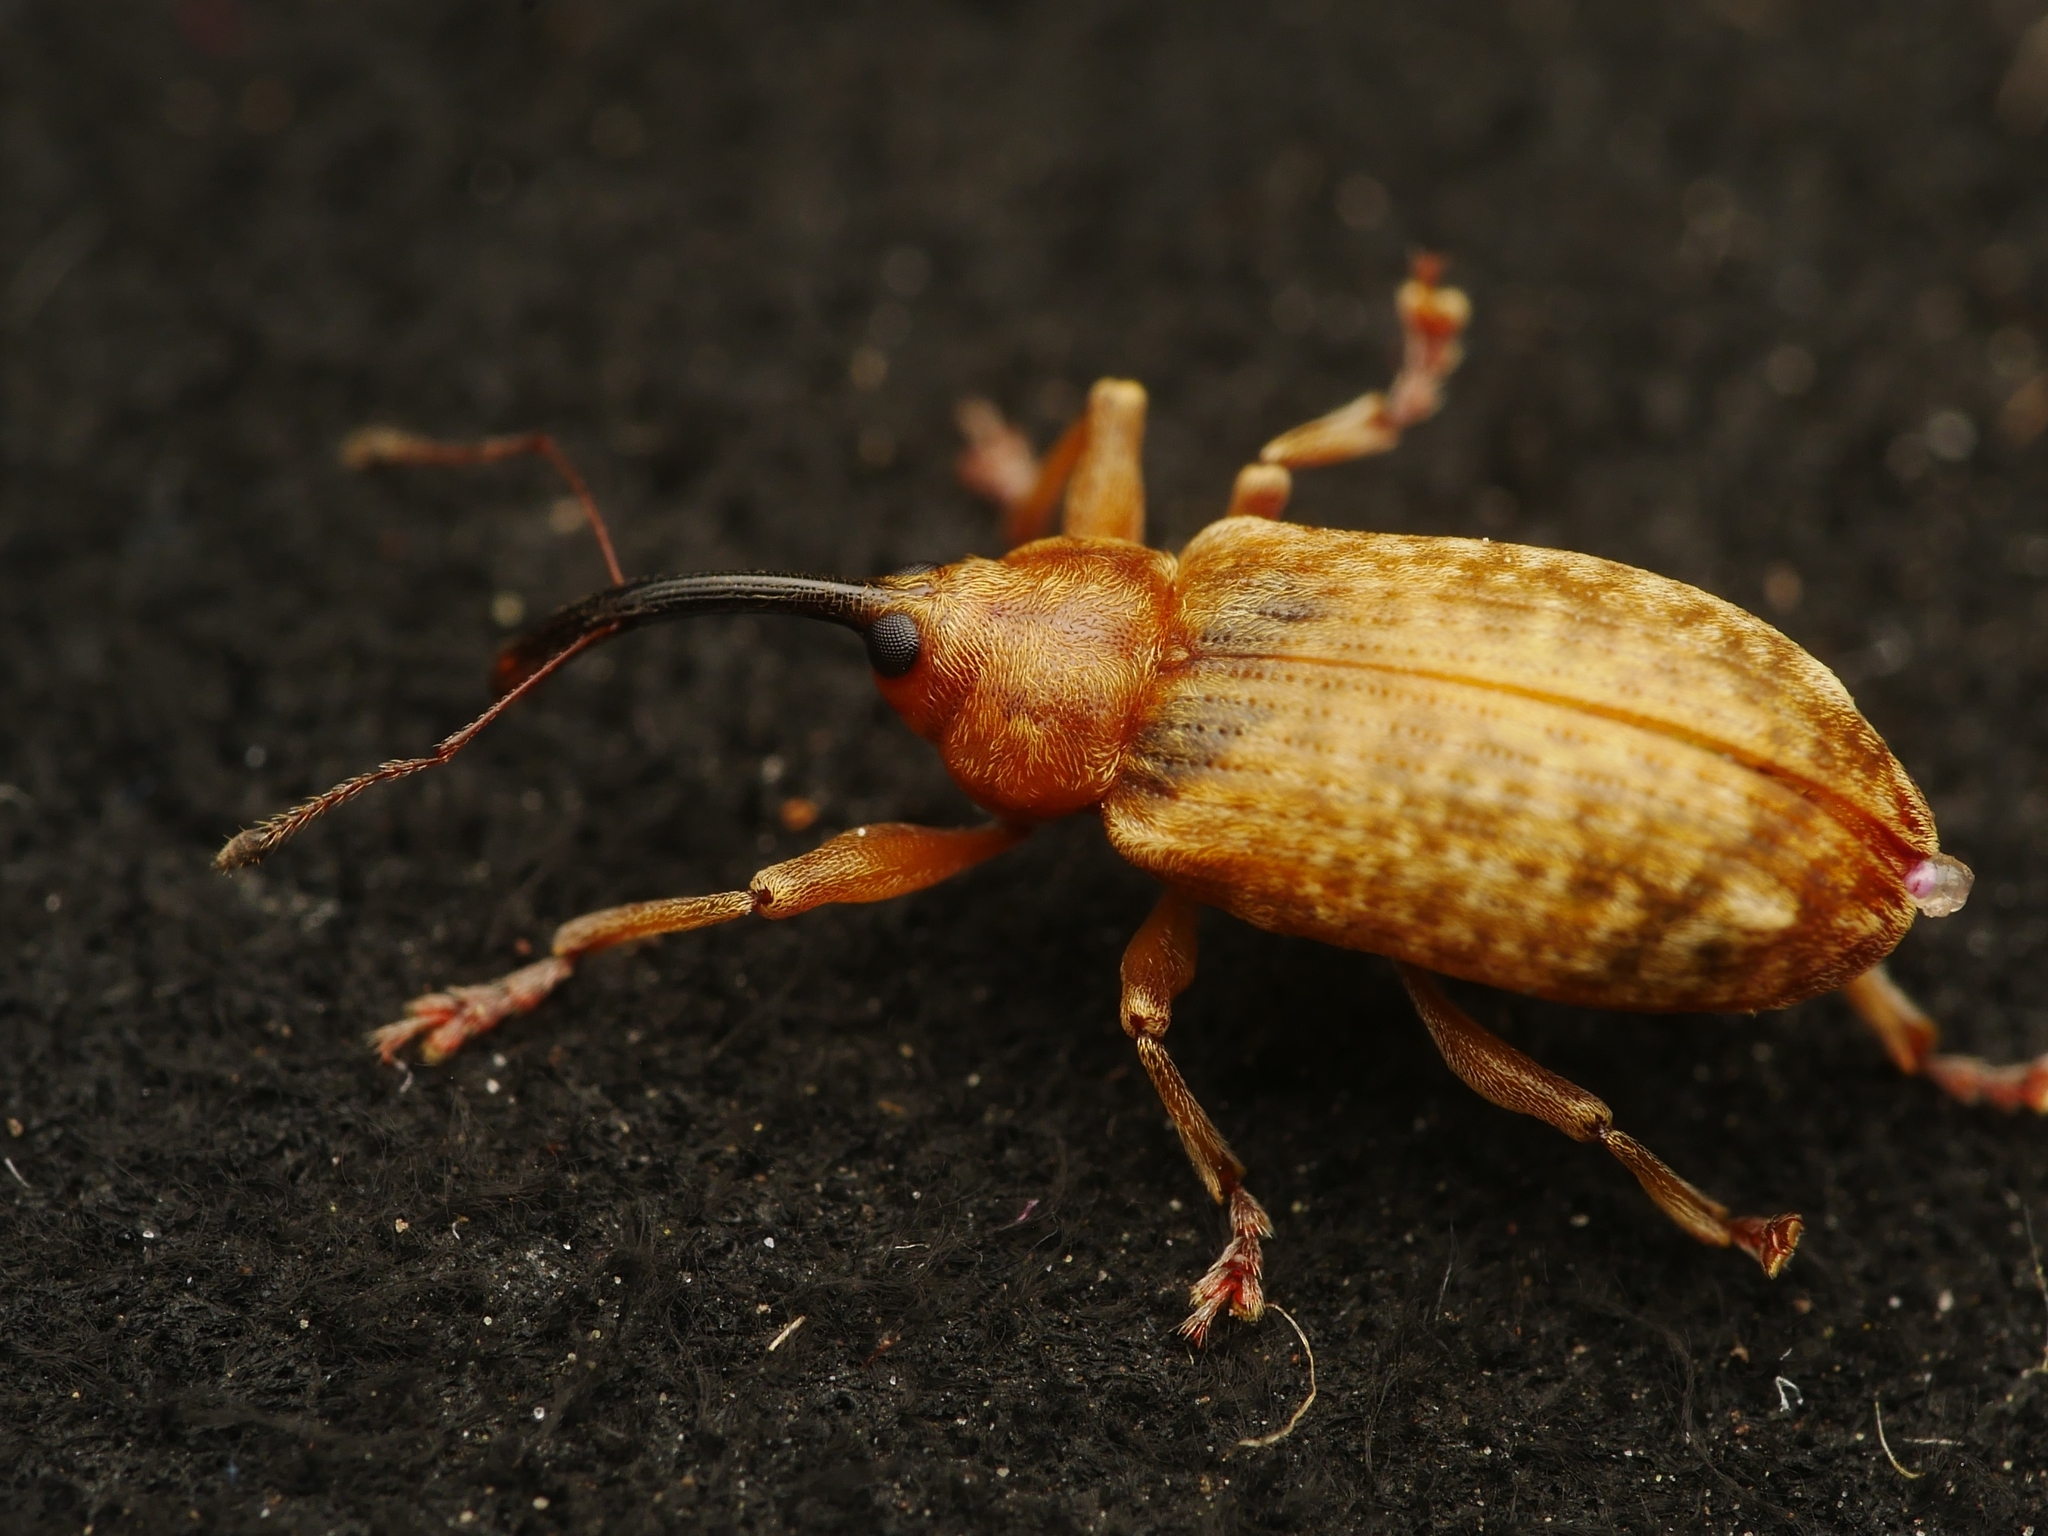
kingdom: Animalia
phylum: Arthropoda
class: Insecta
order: Coleoptera
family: Curculionidae
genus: Dorytomus
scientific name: Dorytomus
